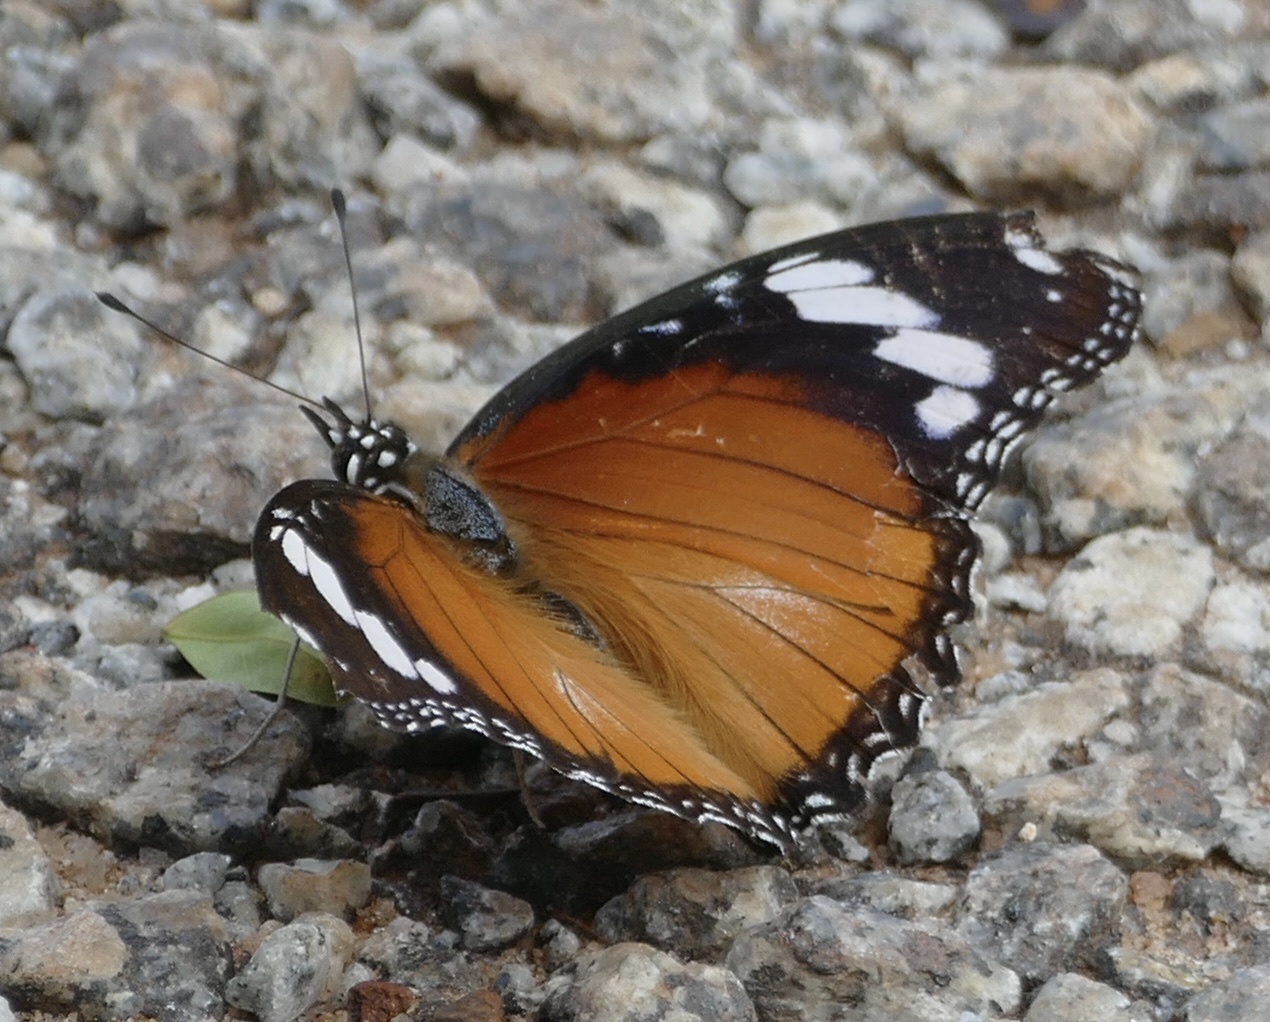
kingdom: Animalia
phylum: Arthropoda
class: Insecta
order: Lepidoptera
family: Nymphalidae
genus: Hypolimnas
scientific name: Hypolimnas misippus
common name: False plain tiger
